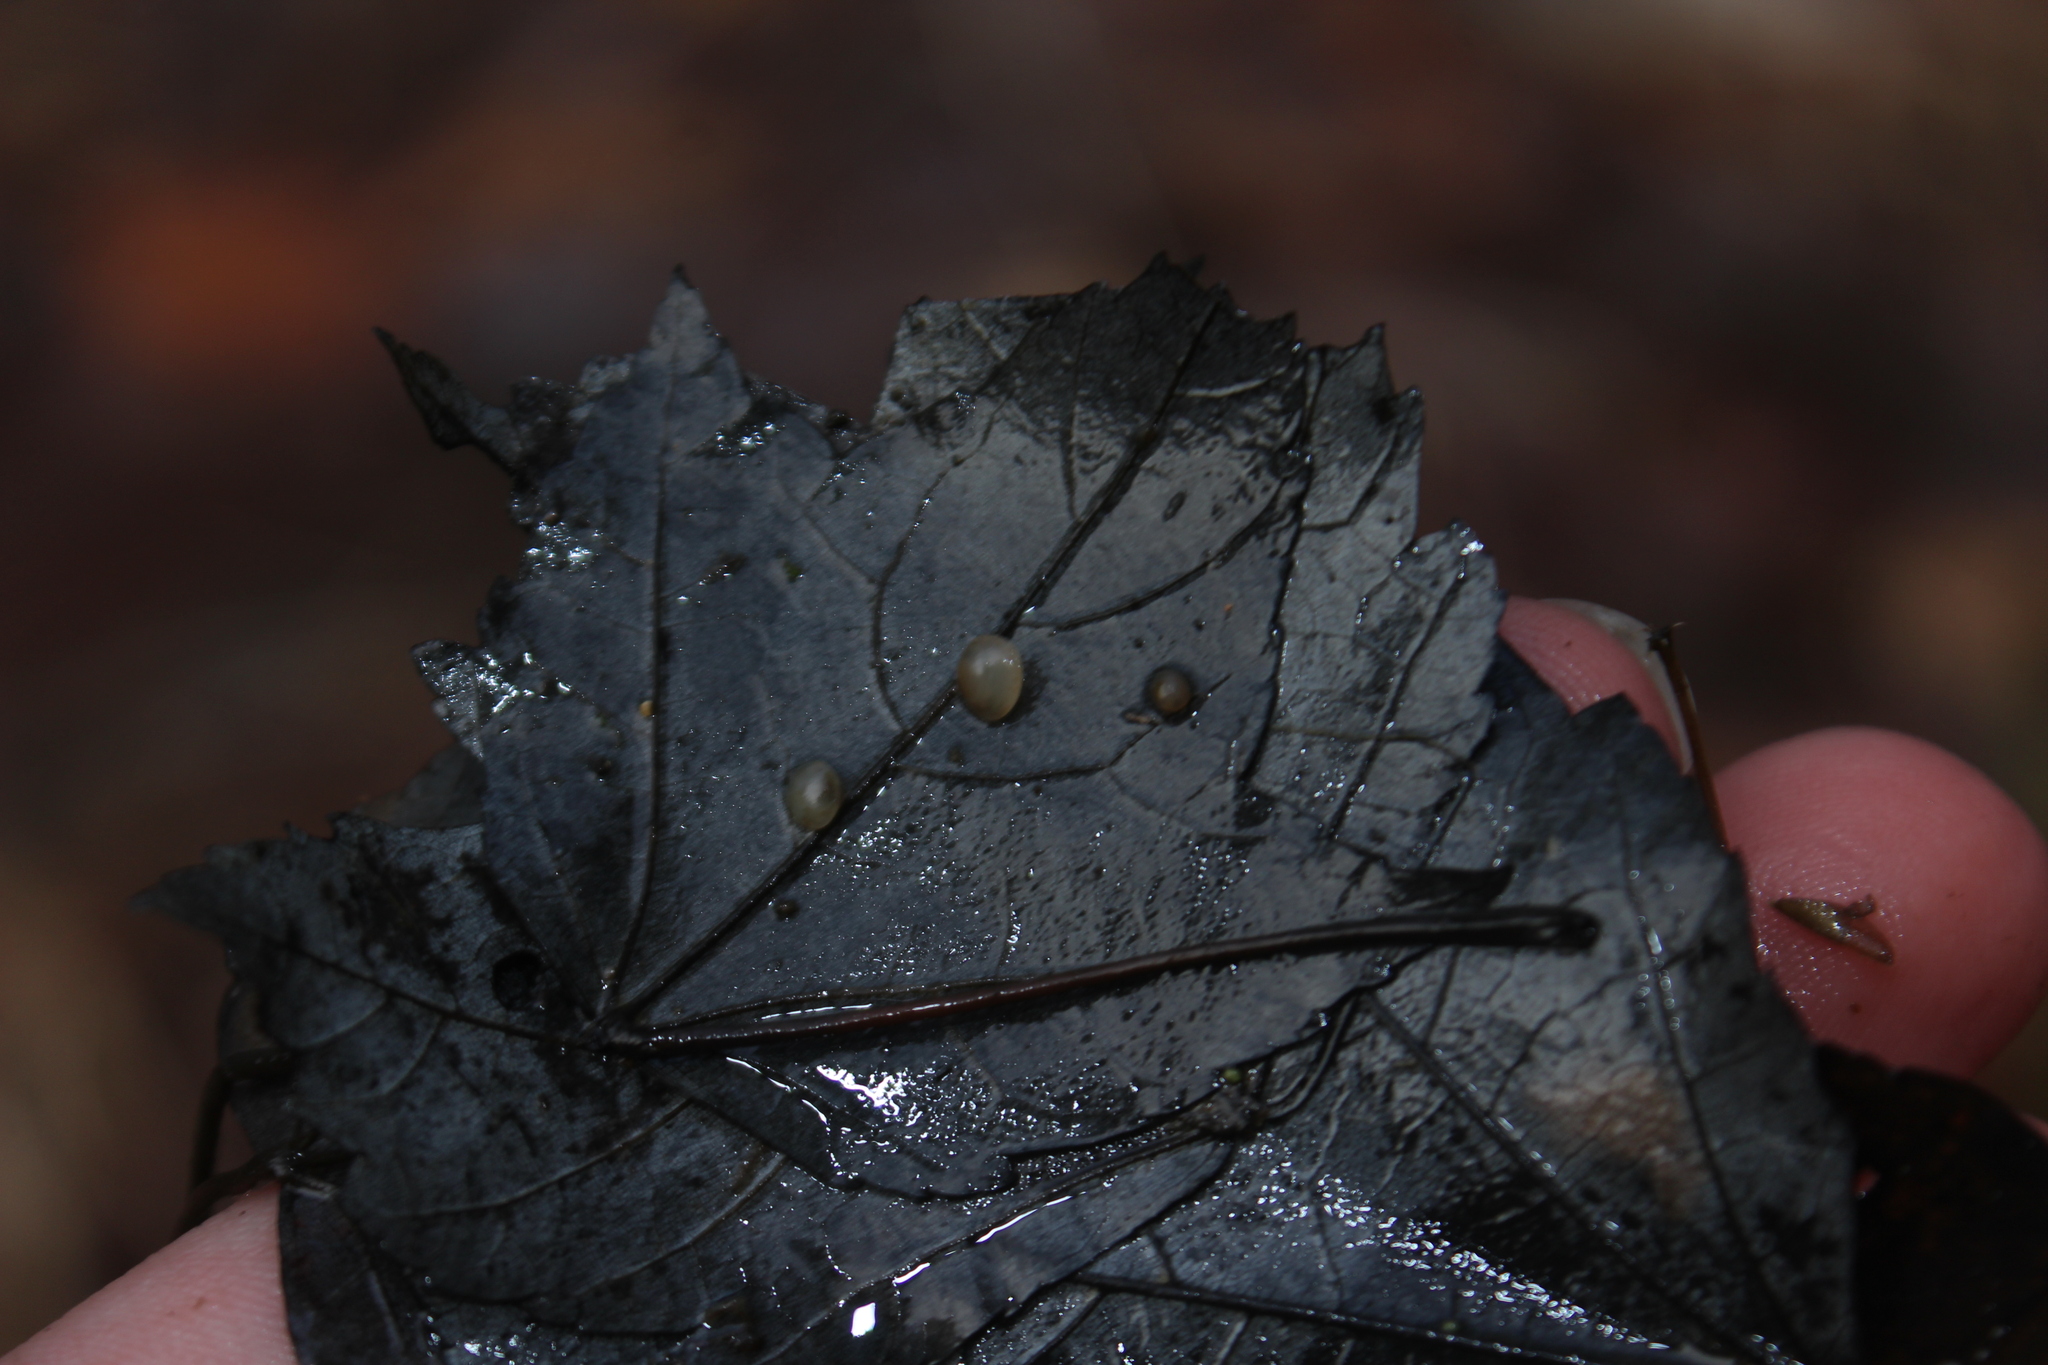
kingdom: Animalia
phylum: Mollusca
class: Bivalvia
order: Sphaeriida
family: Sphaeriidae
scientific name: Sphaeriidae
